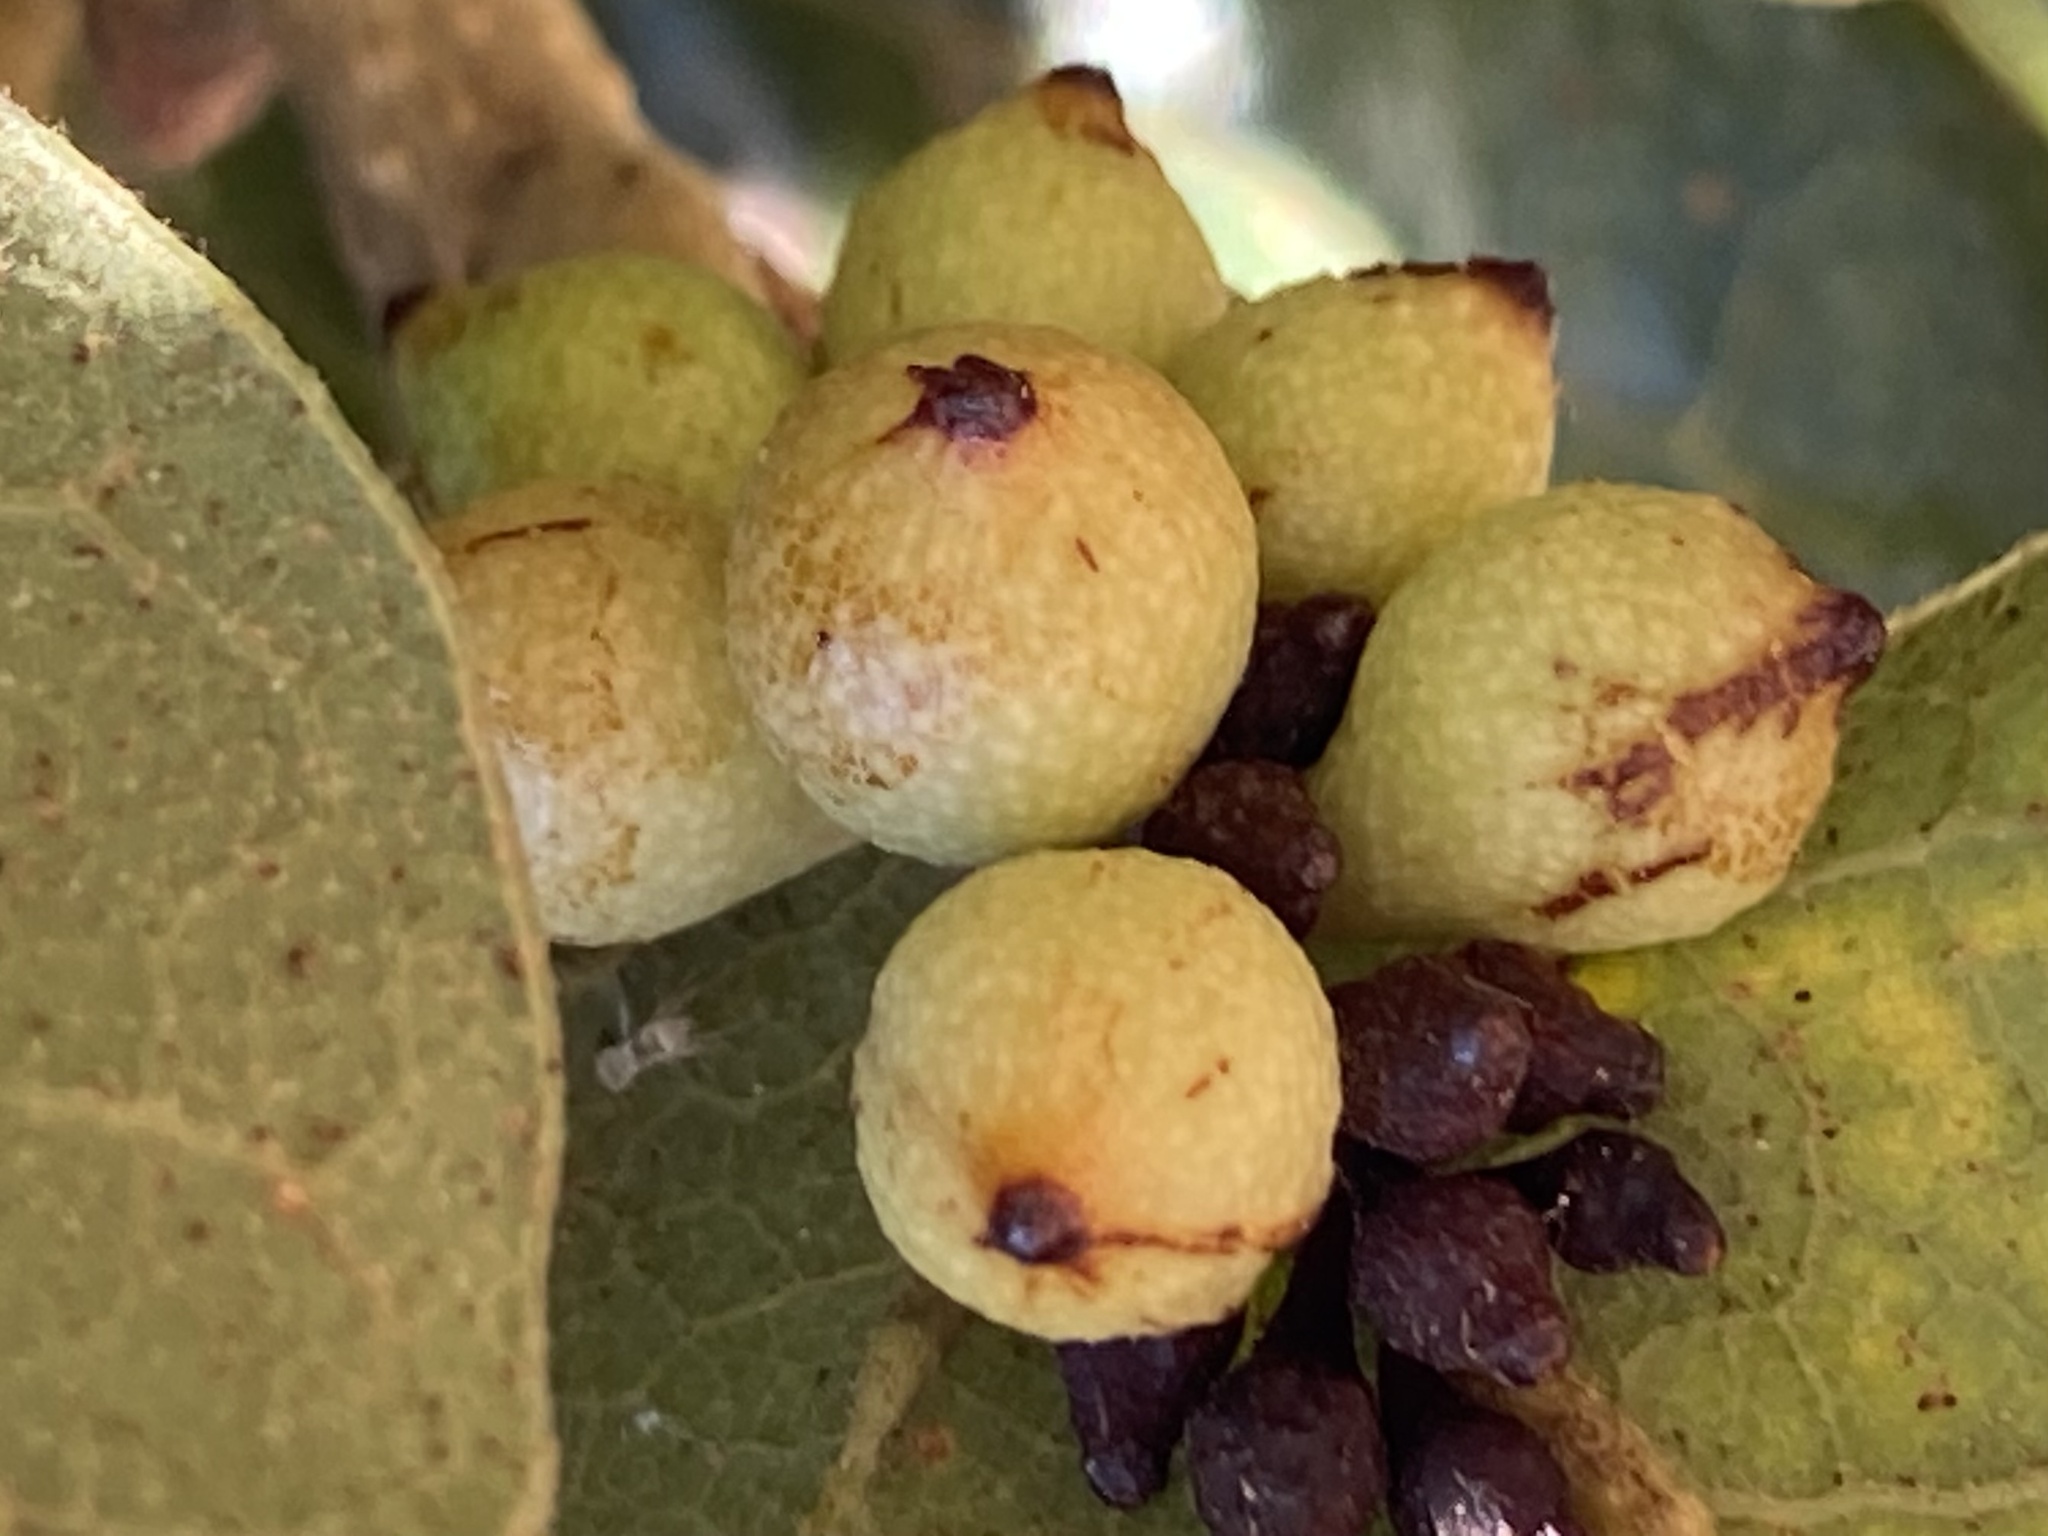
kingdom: Animalia
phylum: Arthropoda
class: Insecta
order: Hymenoptera
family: Cynipidae
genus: Andricus
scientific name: Andricus
